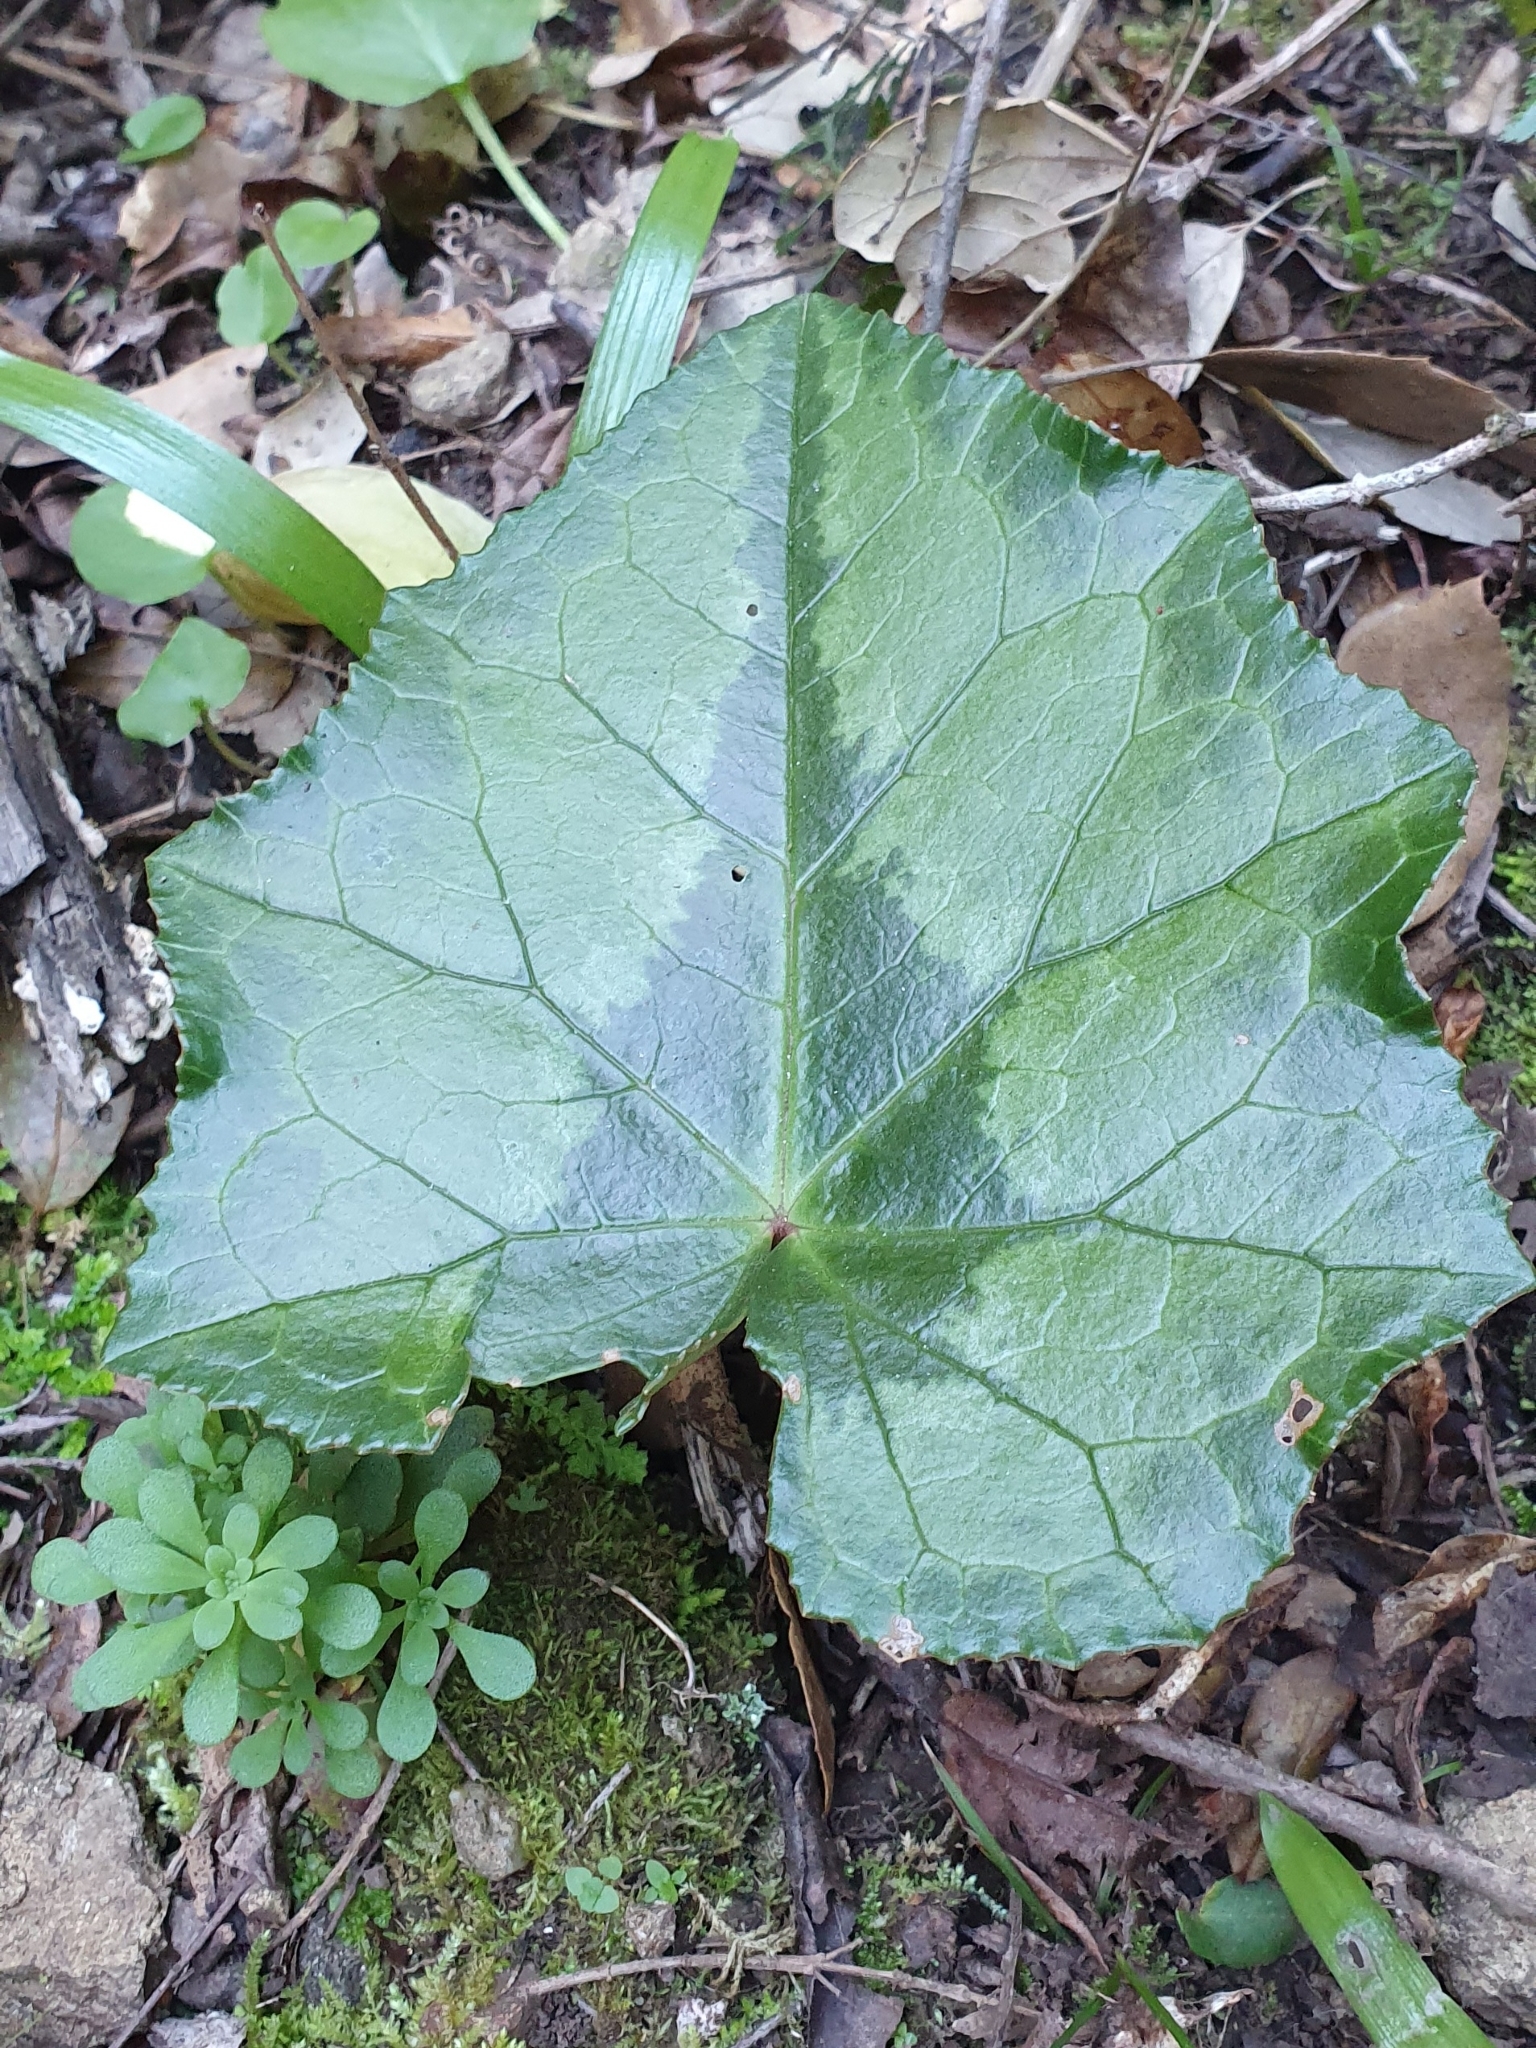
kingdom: Plantae
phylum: Tracheophyta
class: Magnoliopsida
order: Ericales
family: Primulaceae
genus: Cyclamen
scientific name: Cyclamen africanum
